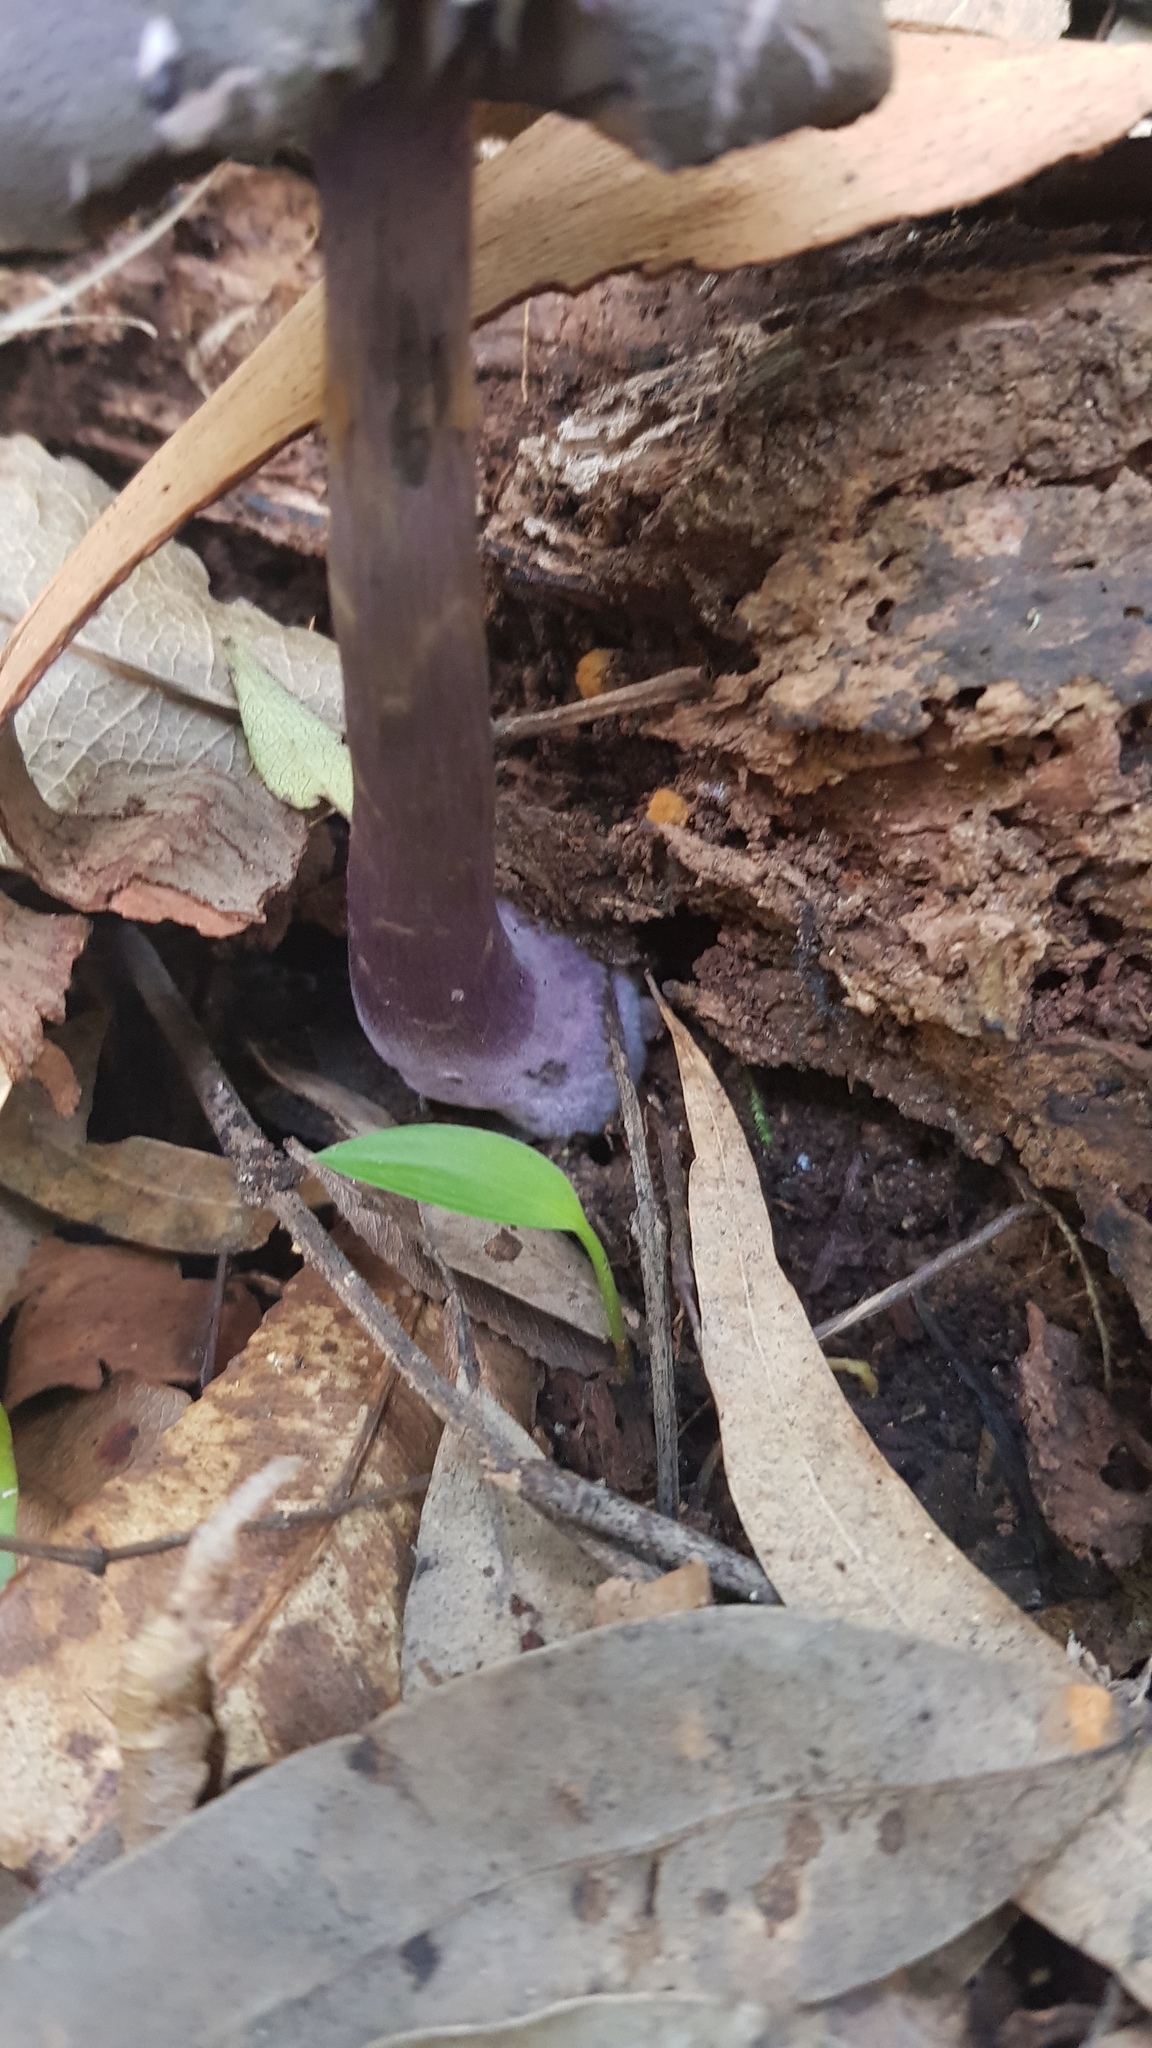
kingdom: Fungi
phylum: Basidiomycota
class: Agaricomycetes
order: Agaricales
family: Cortinariaceae
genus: Cortinarius
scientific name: Cortinarius kioloensis
